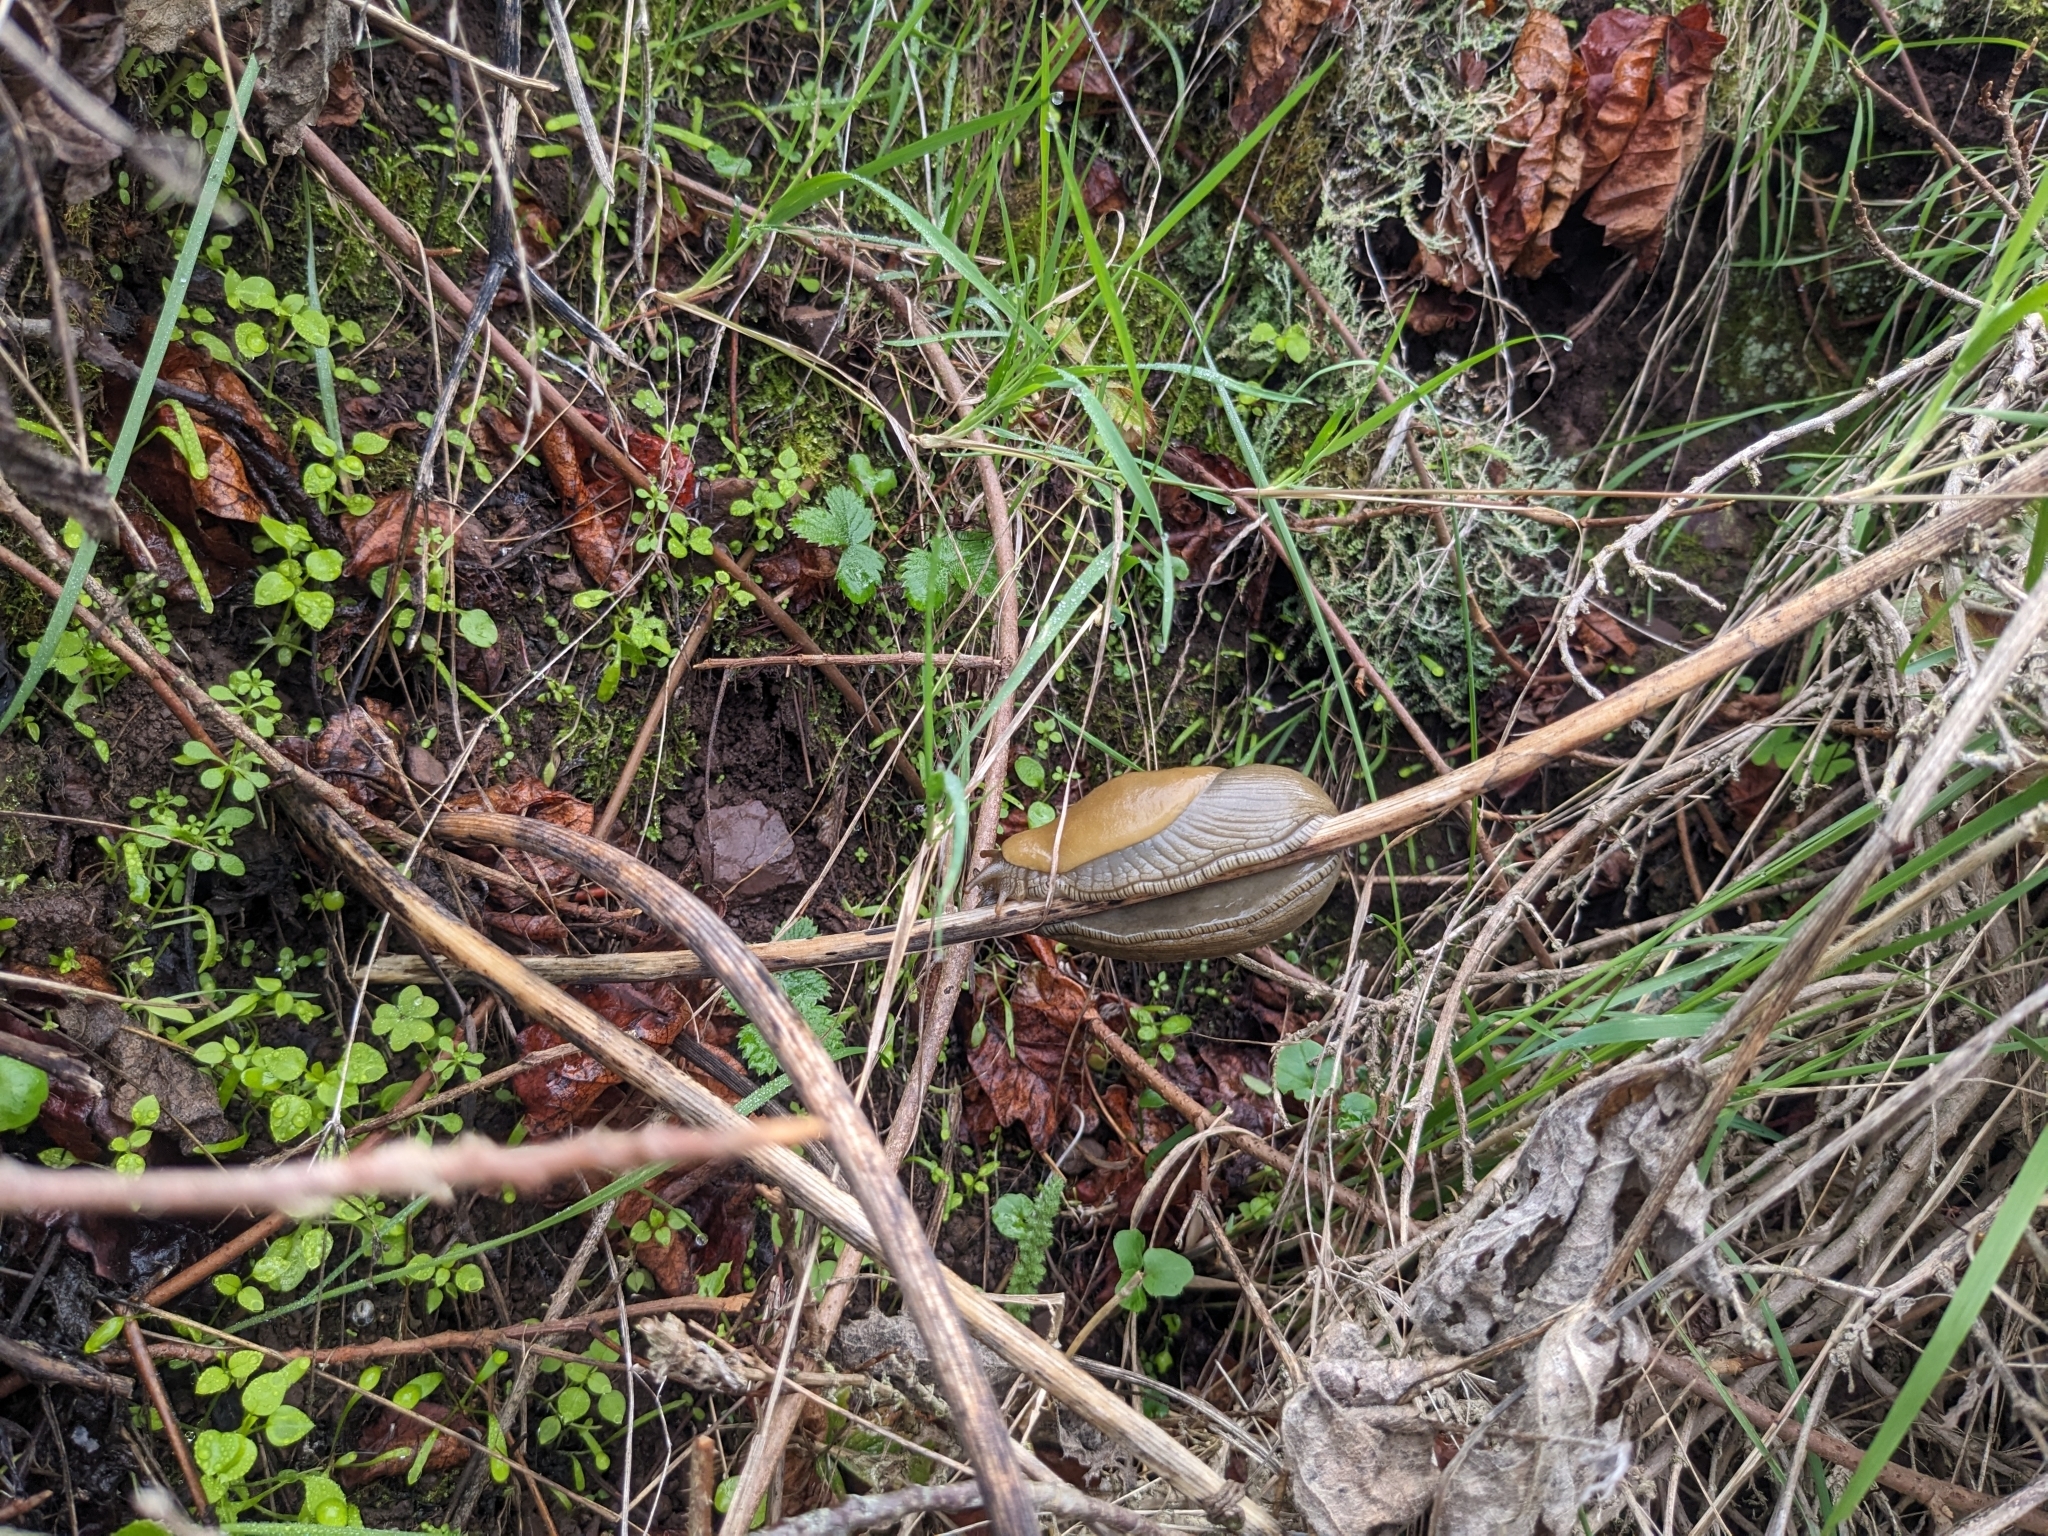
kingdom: Animalia
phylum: Mollusca
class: Gastropoda
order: Stylommatophora
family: Ariolimacidae
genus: Ariolimax
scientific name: Ariolimax buttoni
